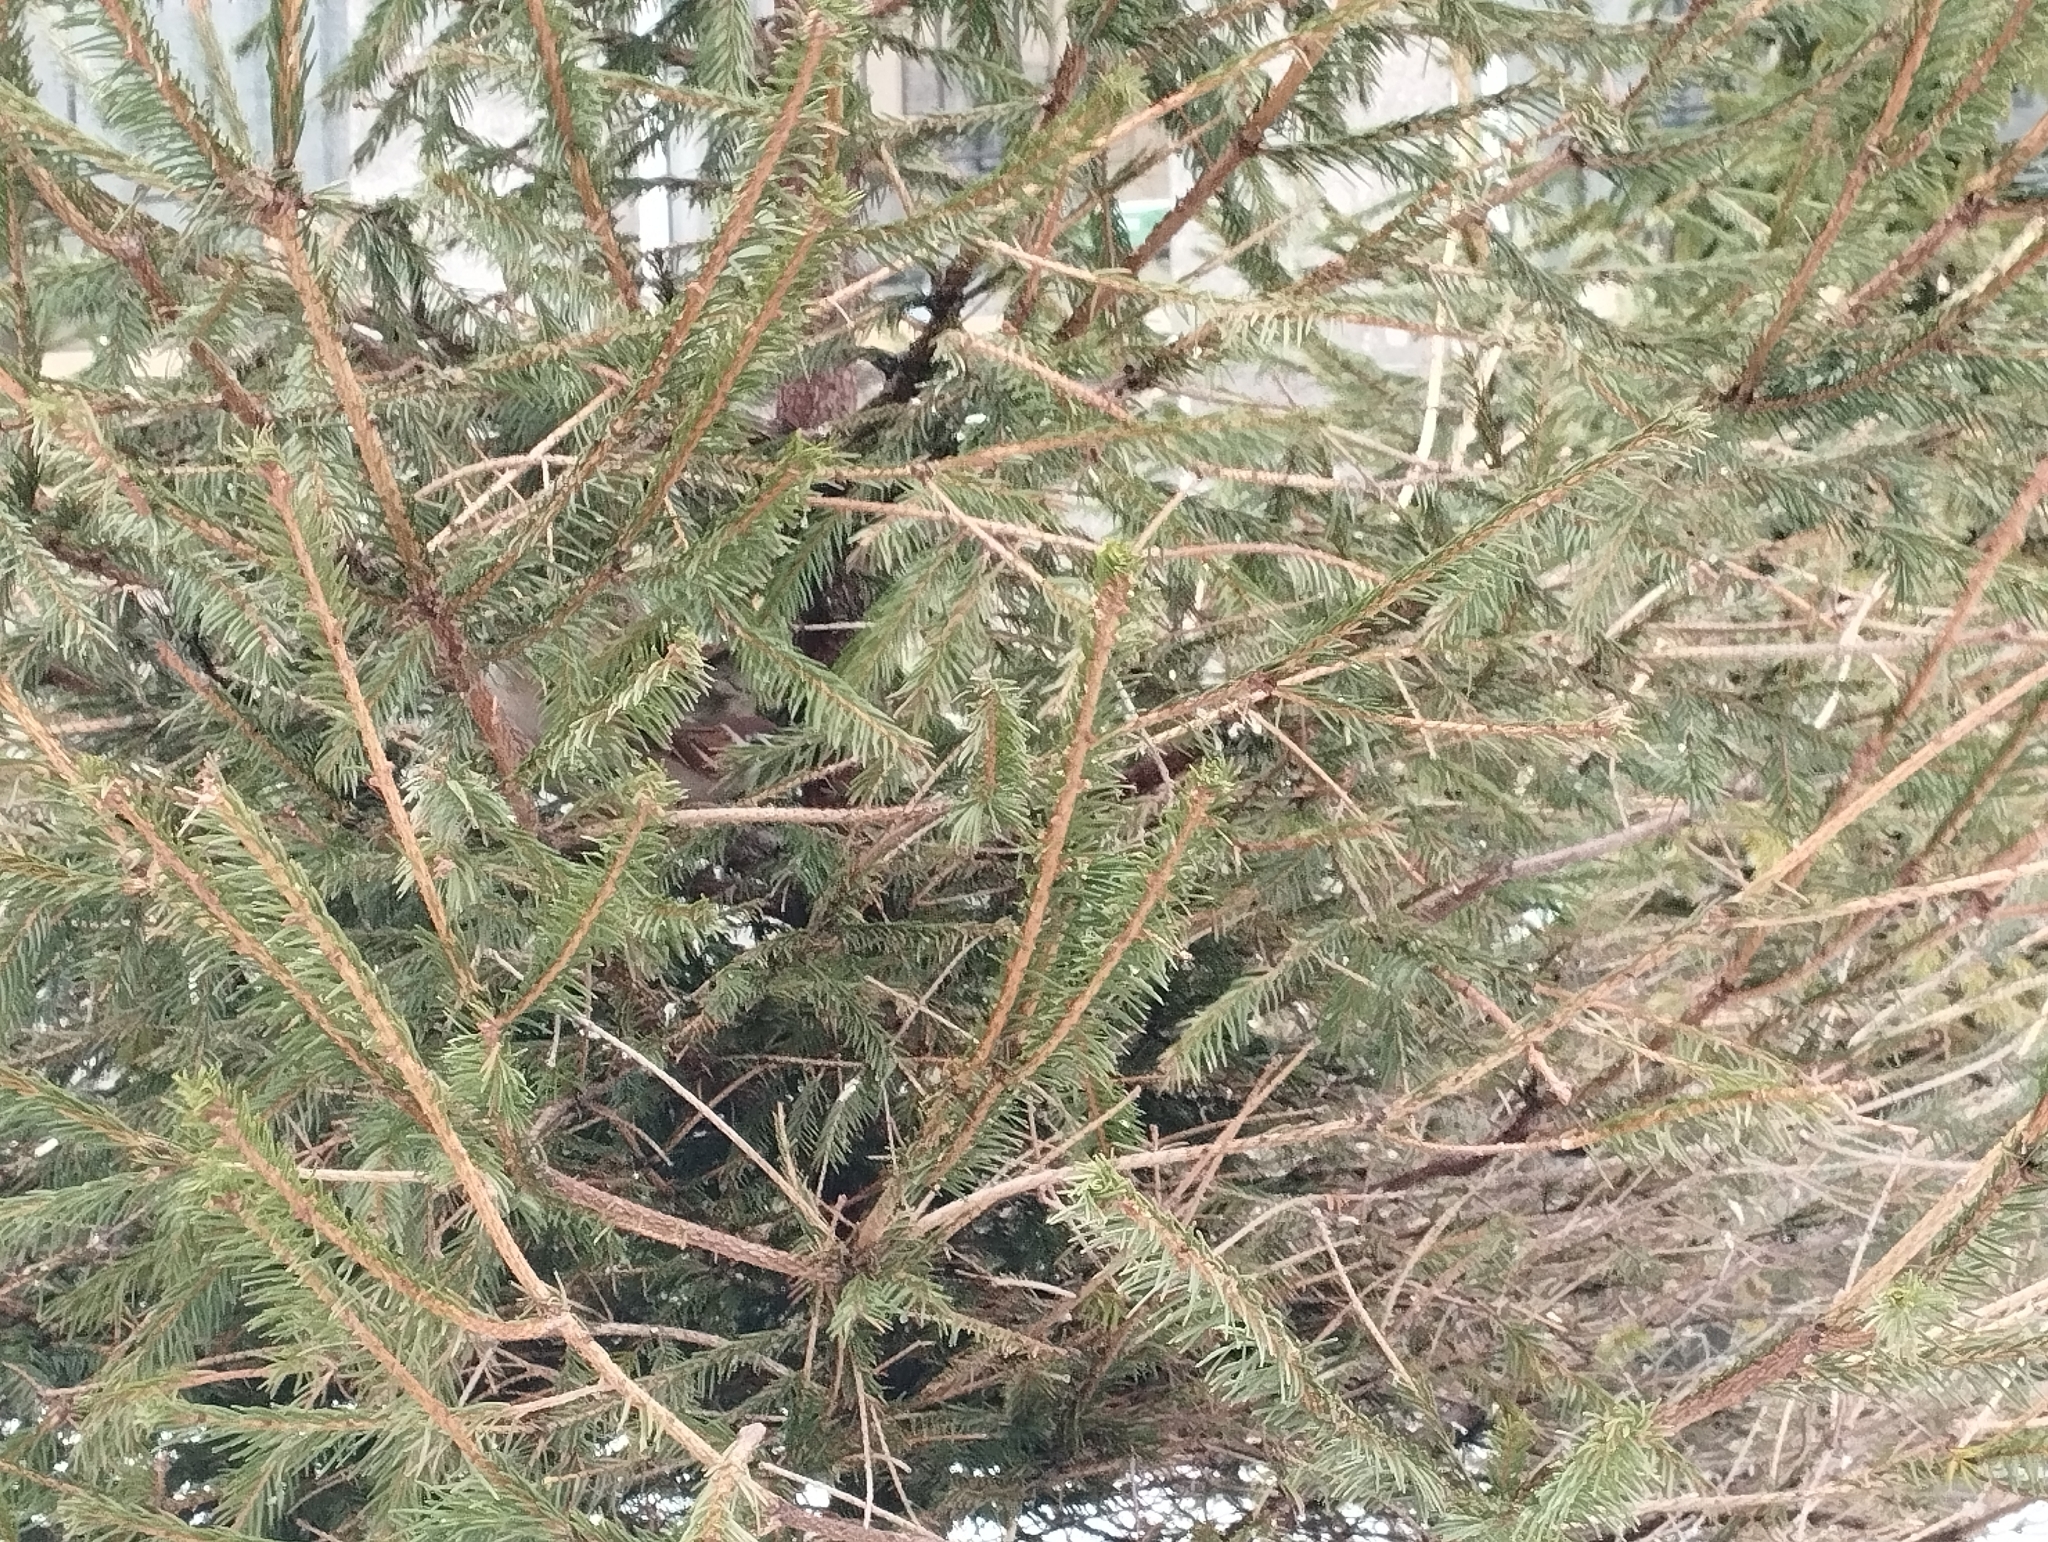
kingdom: Animalia
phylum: Chordata
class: Aves
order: Passeriformes
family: Passeridae
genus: Passer
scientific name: Passer montanus
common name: Eurasian tree sparrow
